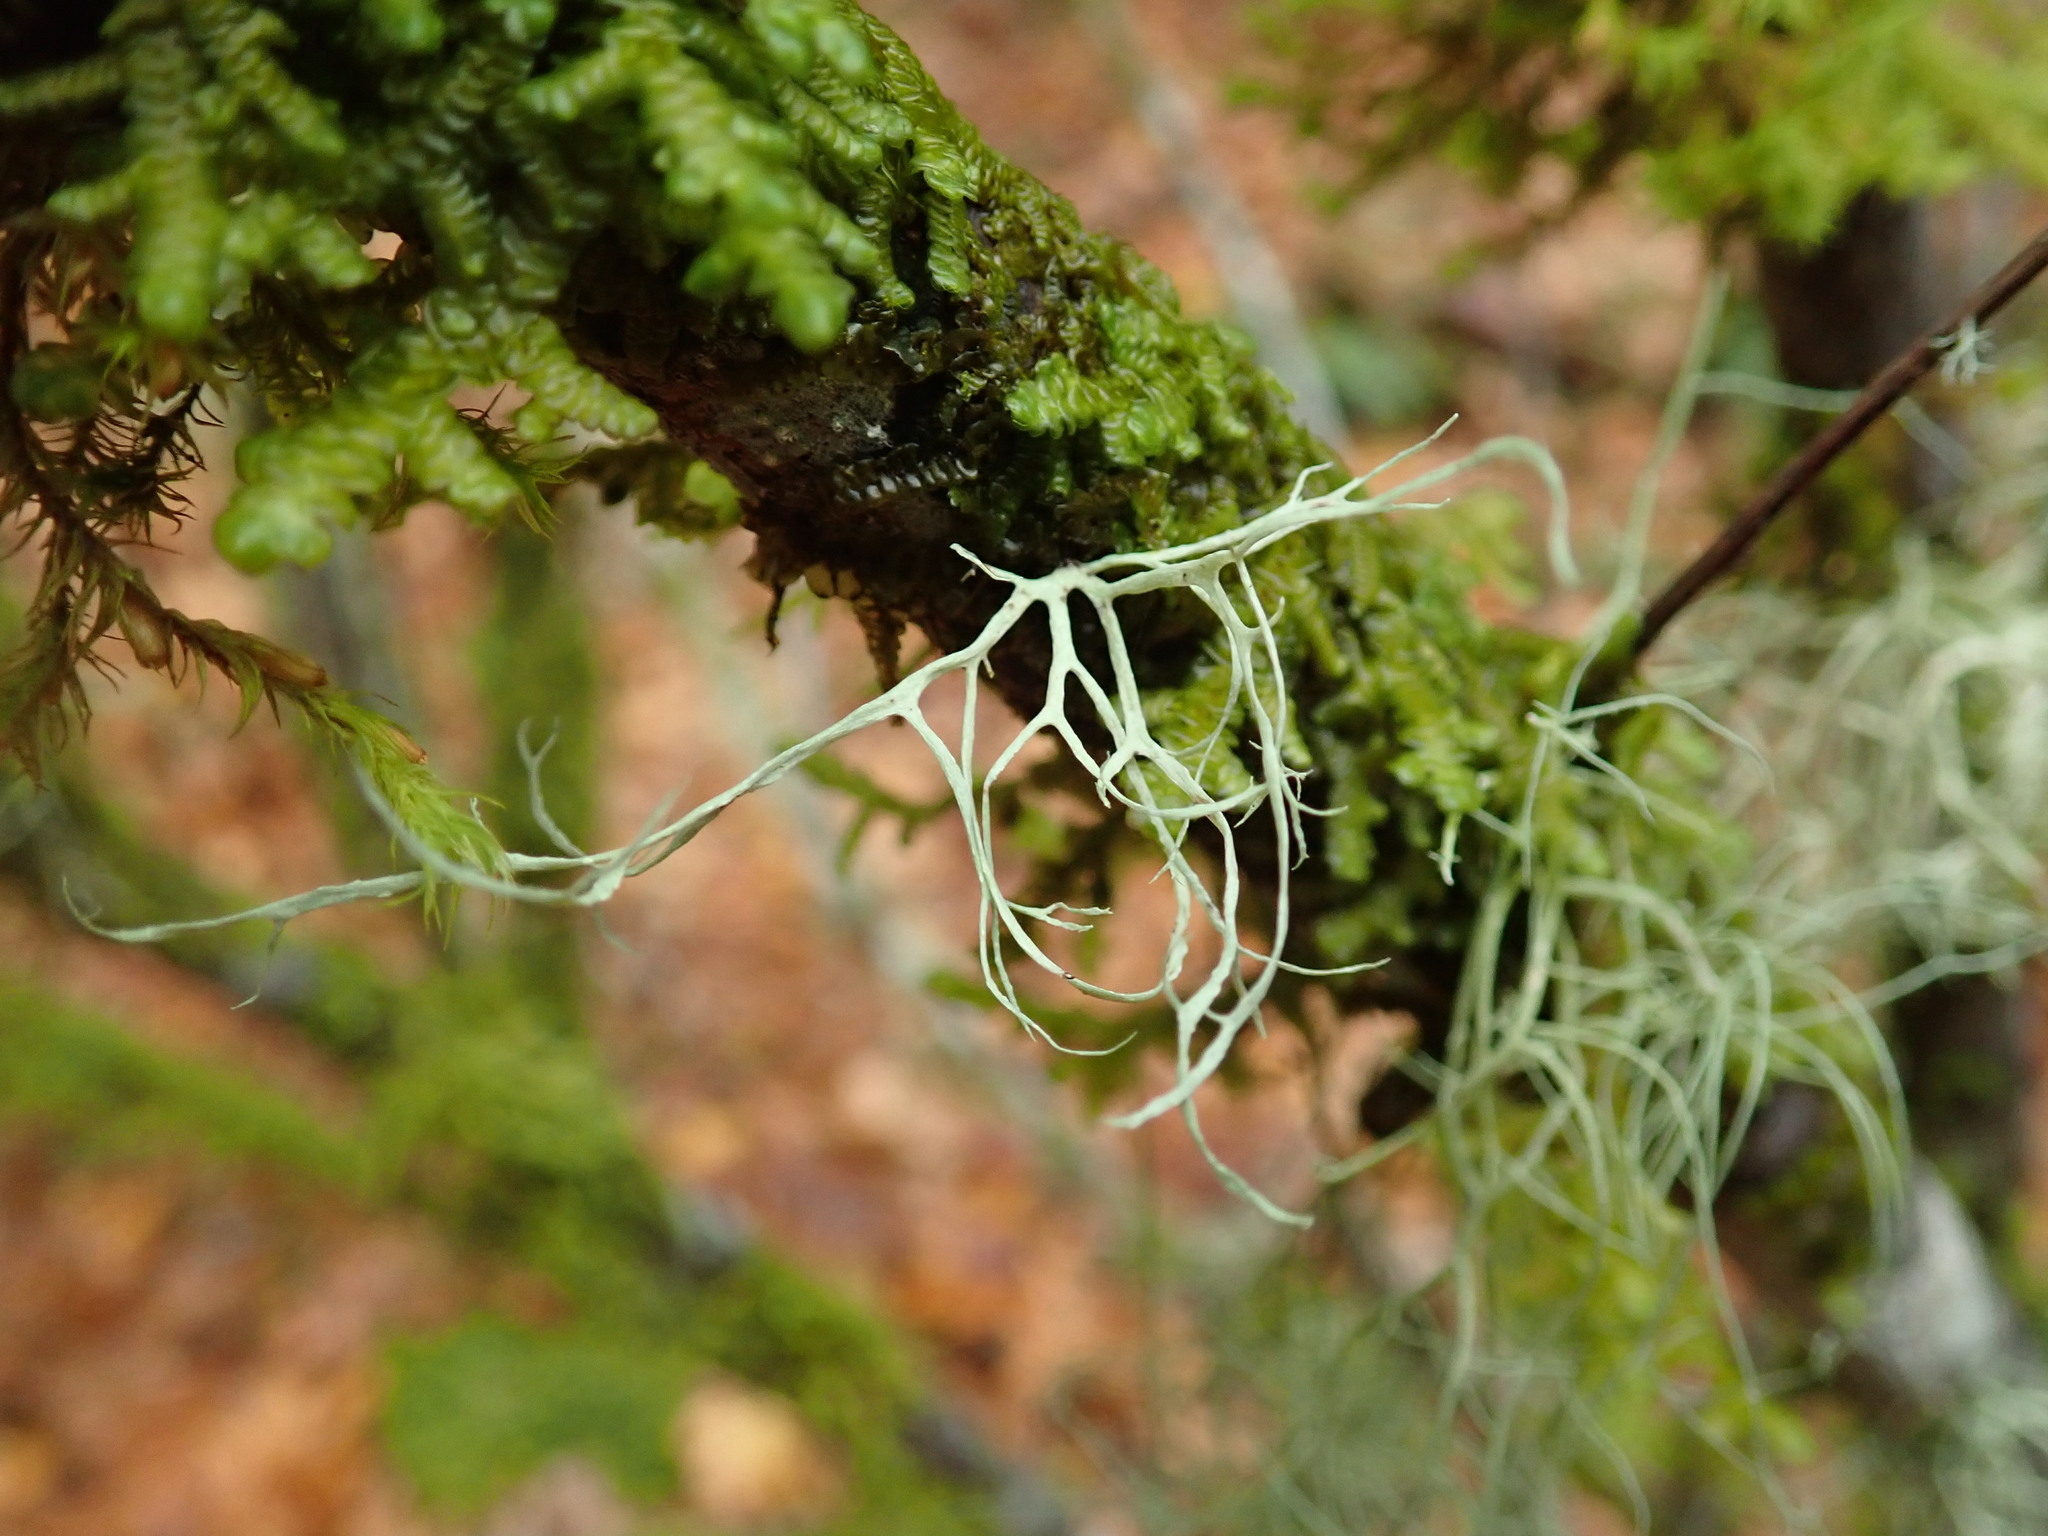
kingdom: Fungi
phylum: Ascomycota
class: Lecanoromycetes
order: Lecanorales
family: Ramalinaceae
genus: Ramalina
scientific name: Ramalina farinacea
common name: Farinose cartilage lichen
